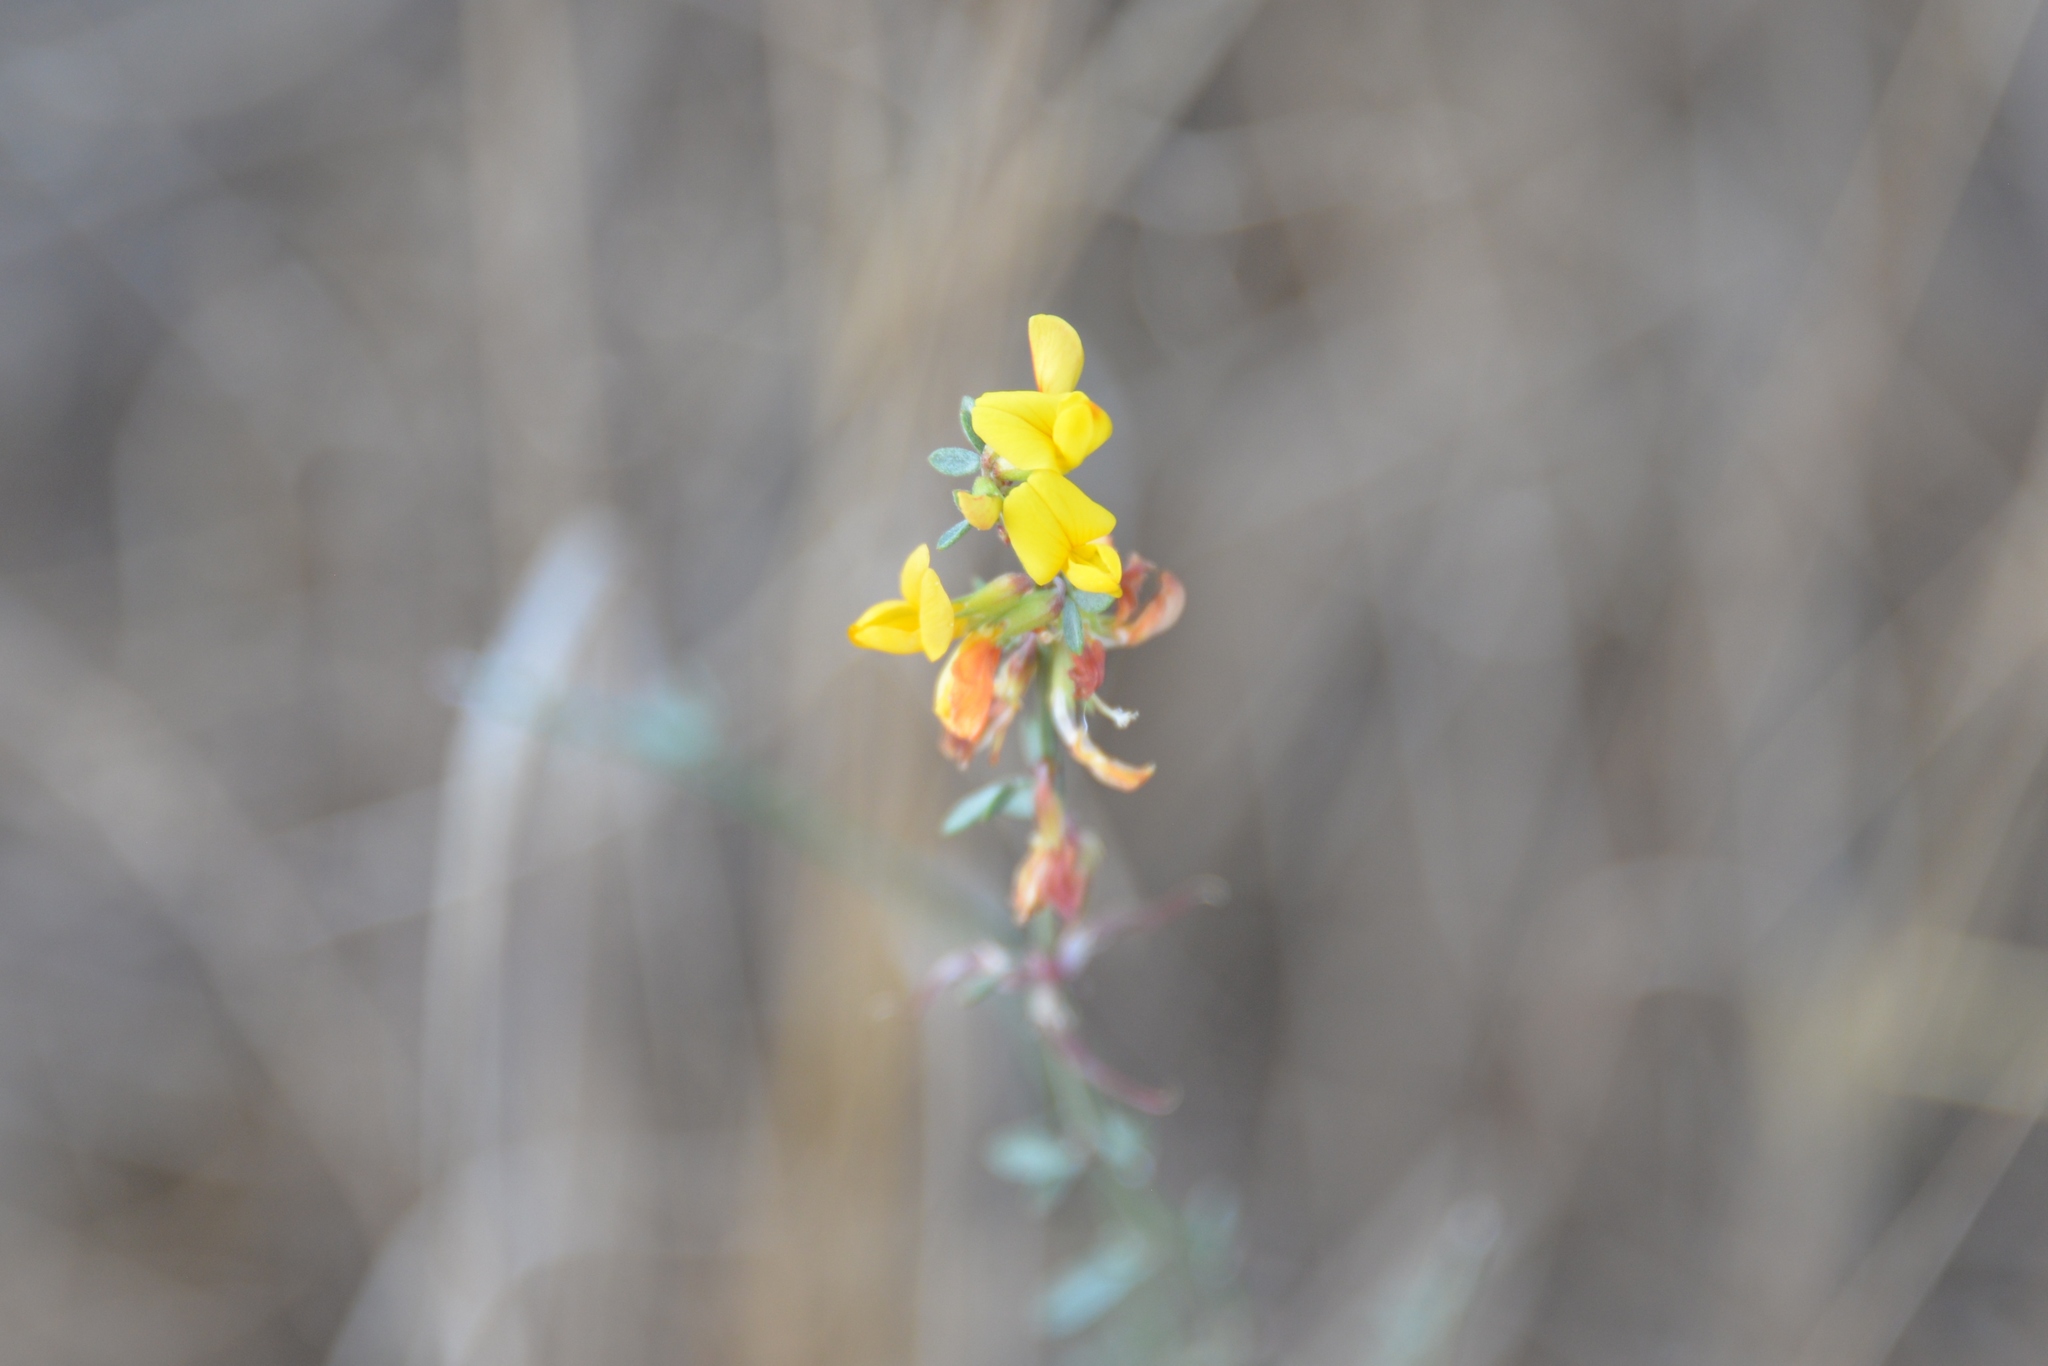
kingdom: Plantae
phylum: Tracheophyta
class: Magnoliopsida
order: Fabales
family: Fabaceae
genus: Acmispon
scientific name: Acmispon glaber
